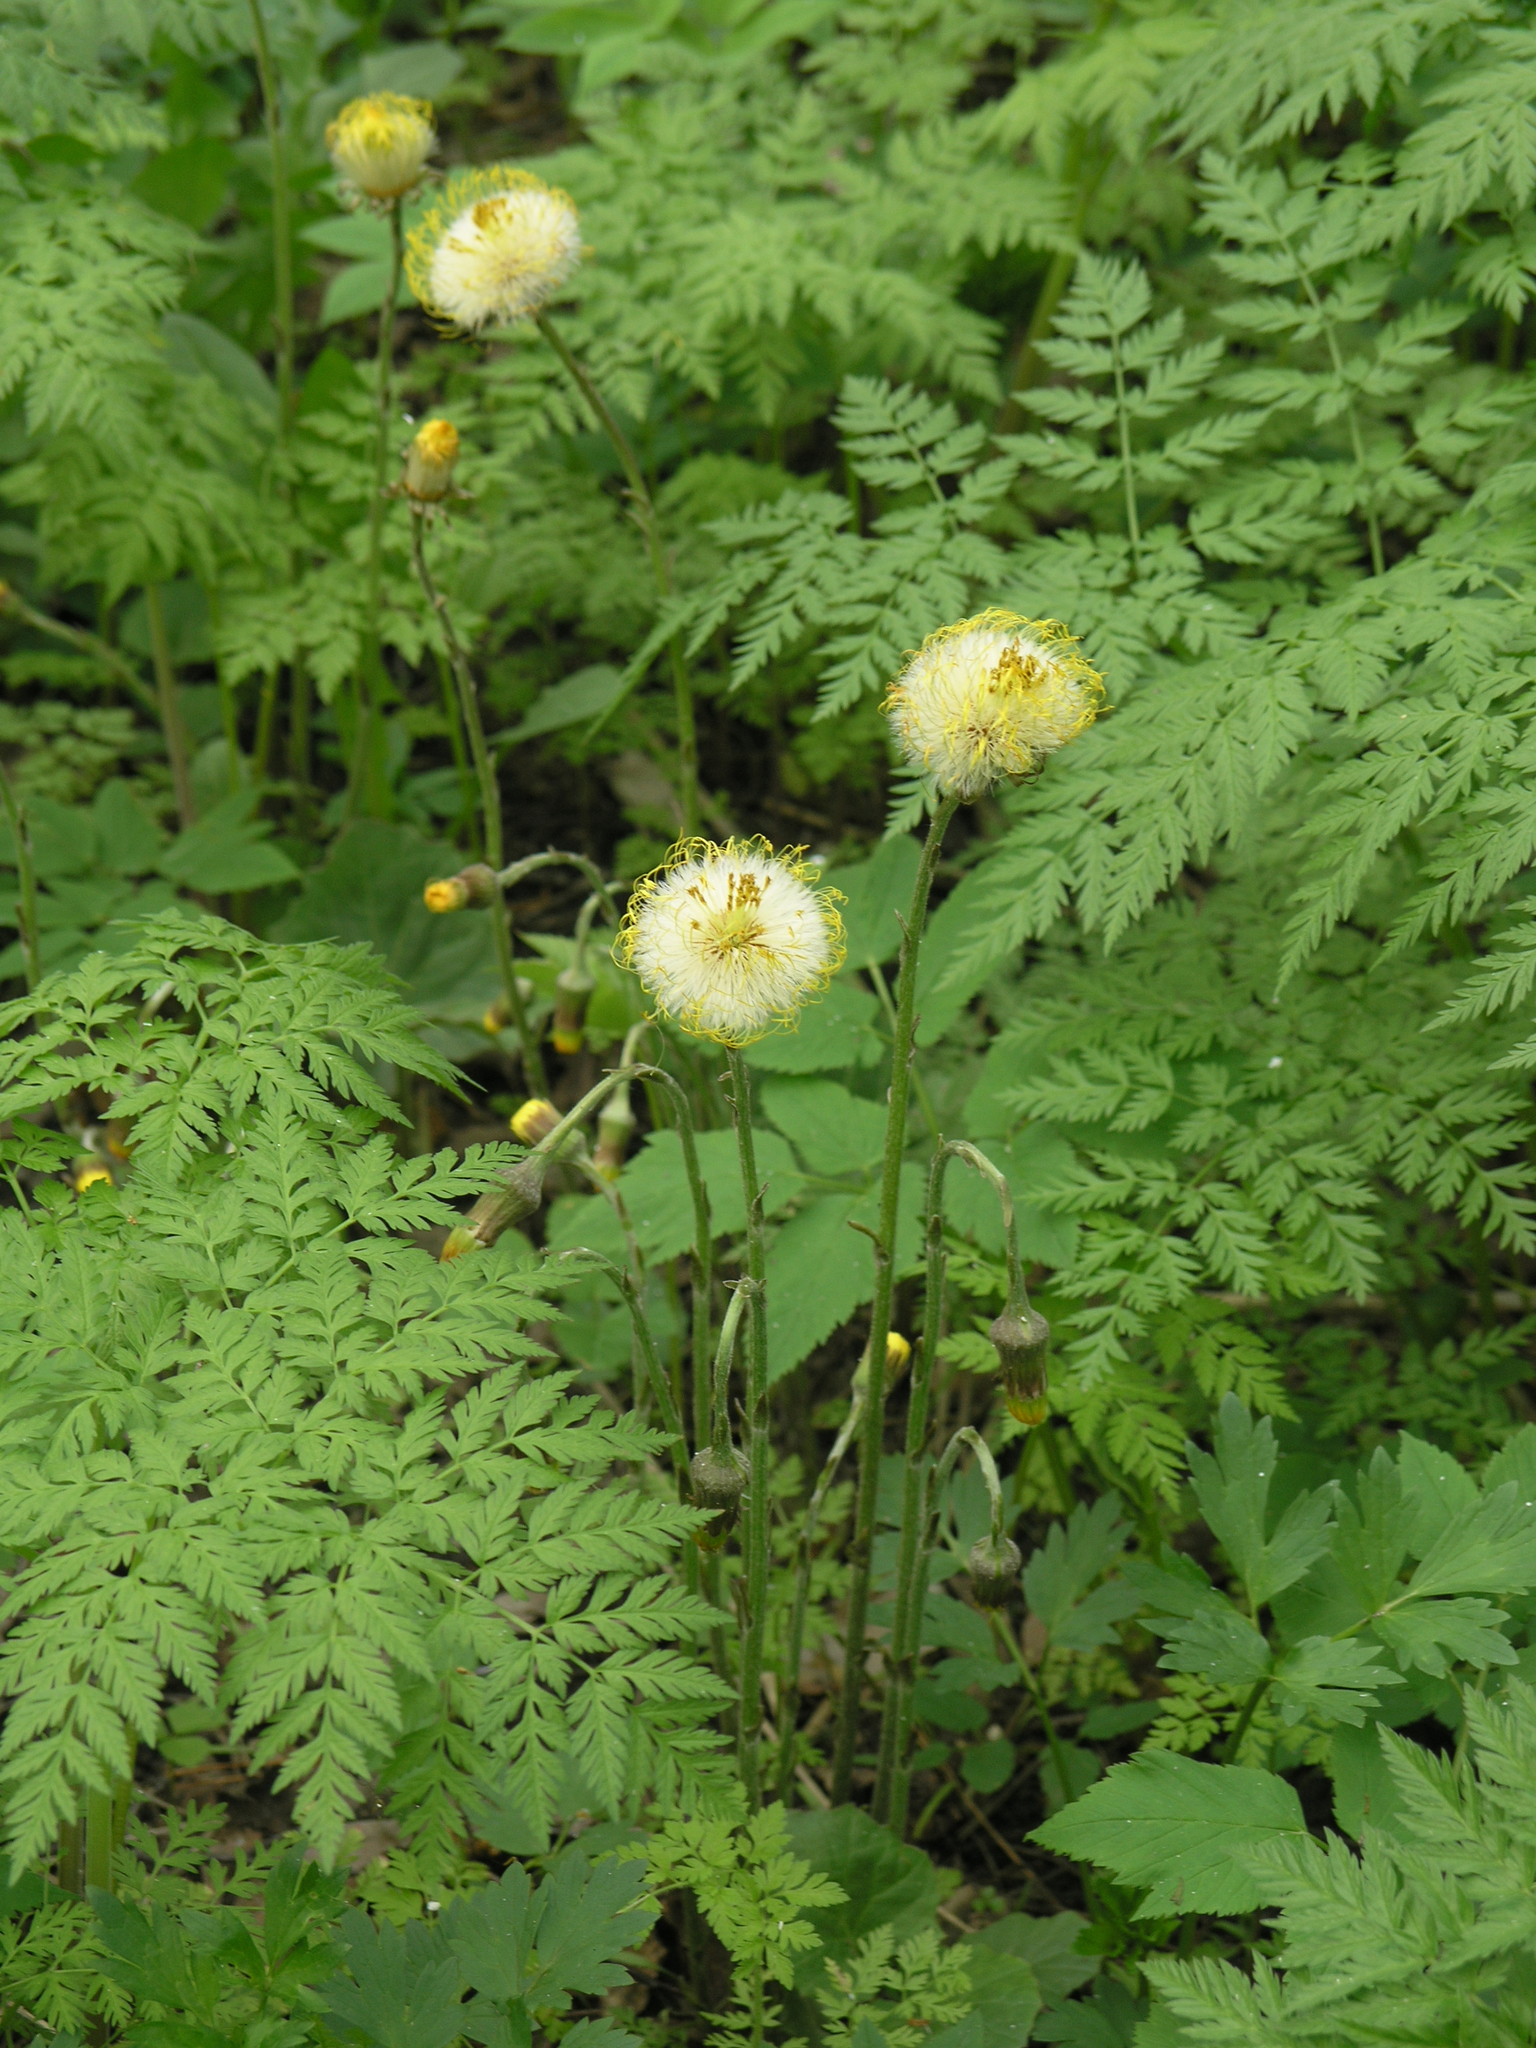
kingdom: Plantae
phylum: Tracheophyta
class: Magnoliopsida
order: Asterales
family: Asteraceae
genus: Tussilago
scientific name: Tussilago farfara
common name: Coltsfoot
